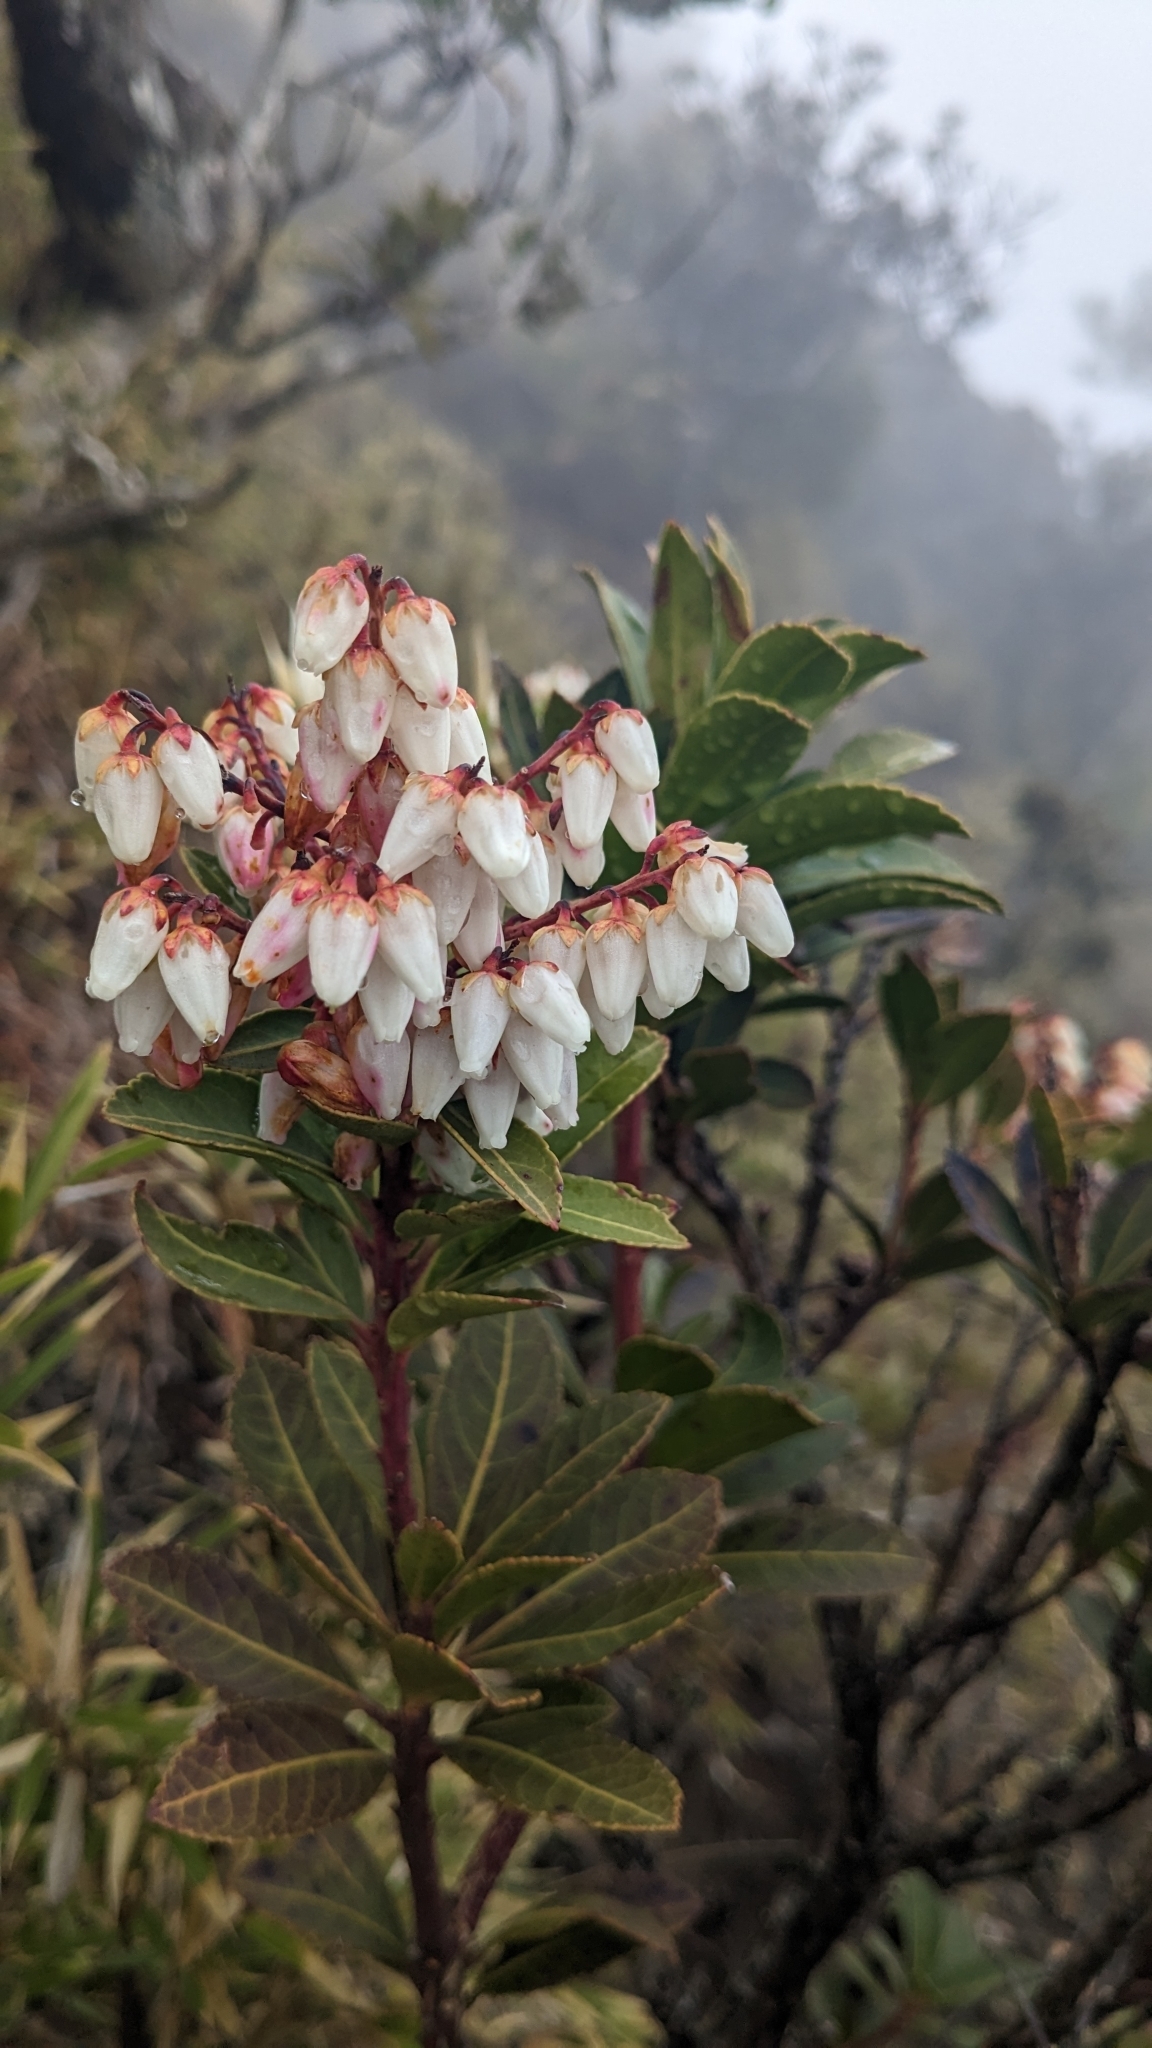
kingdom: Plantae
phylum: Tracheophyta
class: Magnoliopsida
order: Ericales
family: Ericaceae
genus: Pieris
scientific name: Pieris japonica
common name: Japanese pieris
